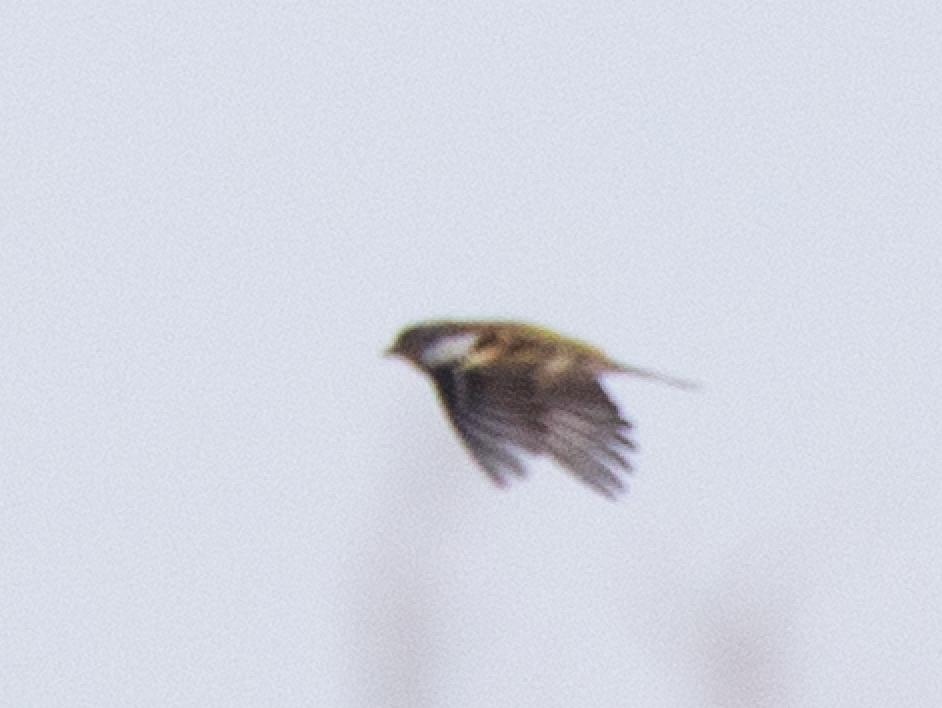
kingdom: Animalia
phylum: Chordata
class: Aves
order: Passeriformes
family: Fringillidae
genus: Fringilla
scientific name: Fringilla coelebs
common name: Common chaffinch
